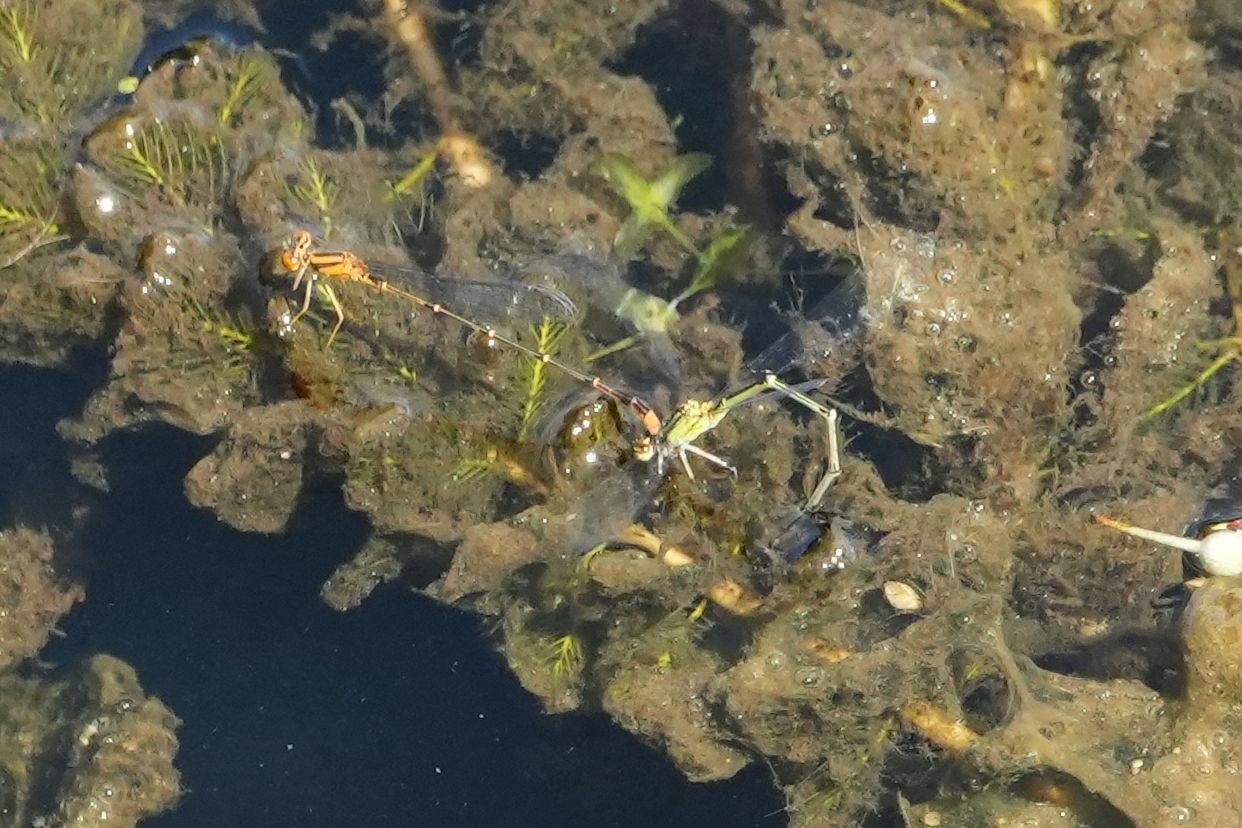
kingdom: Animalia
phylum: Arthropoda
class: Insecta
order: Odonata
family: Coenagrionidae
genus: Enallagma
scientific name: Enallagma signatum
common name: Orange bluet
